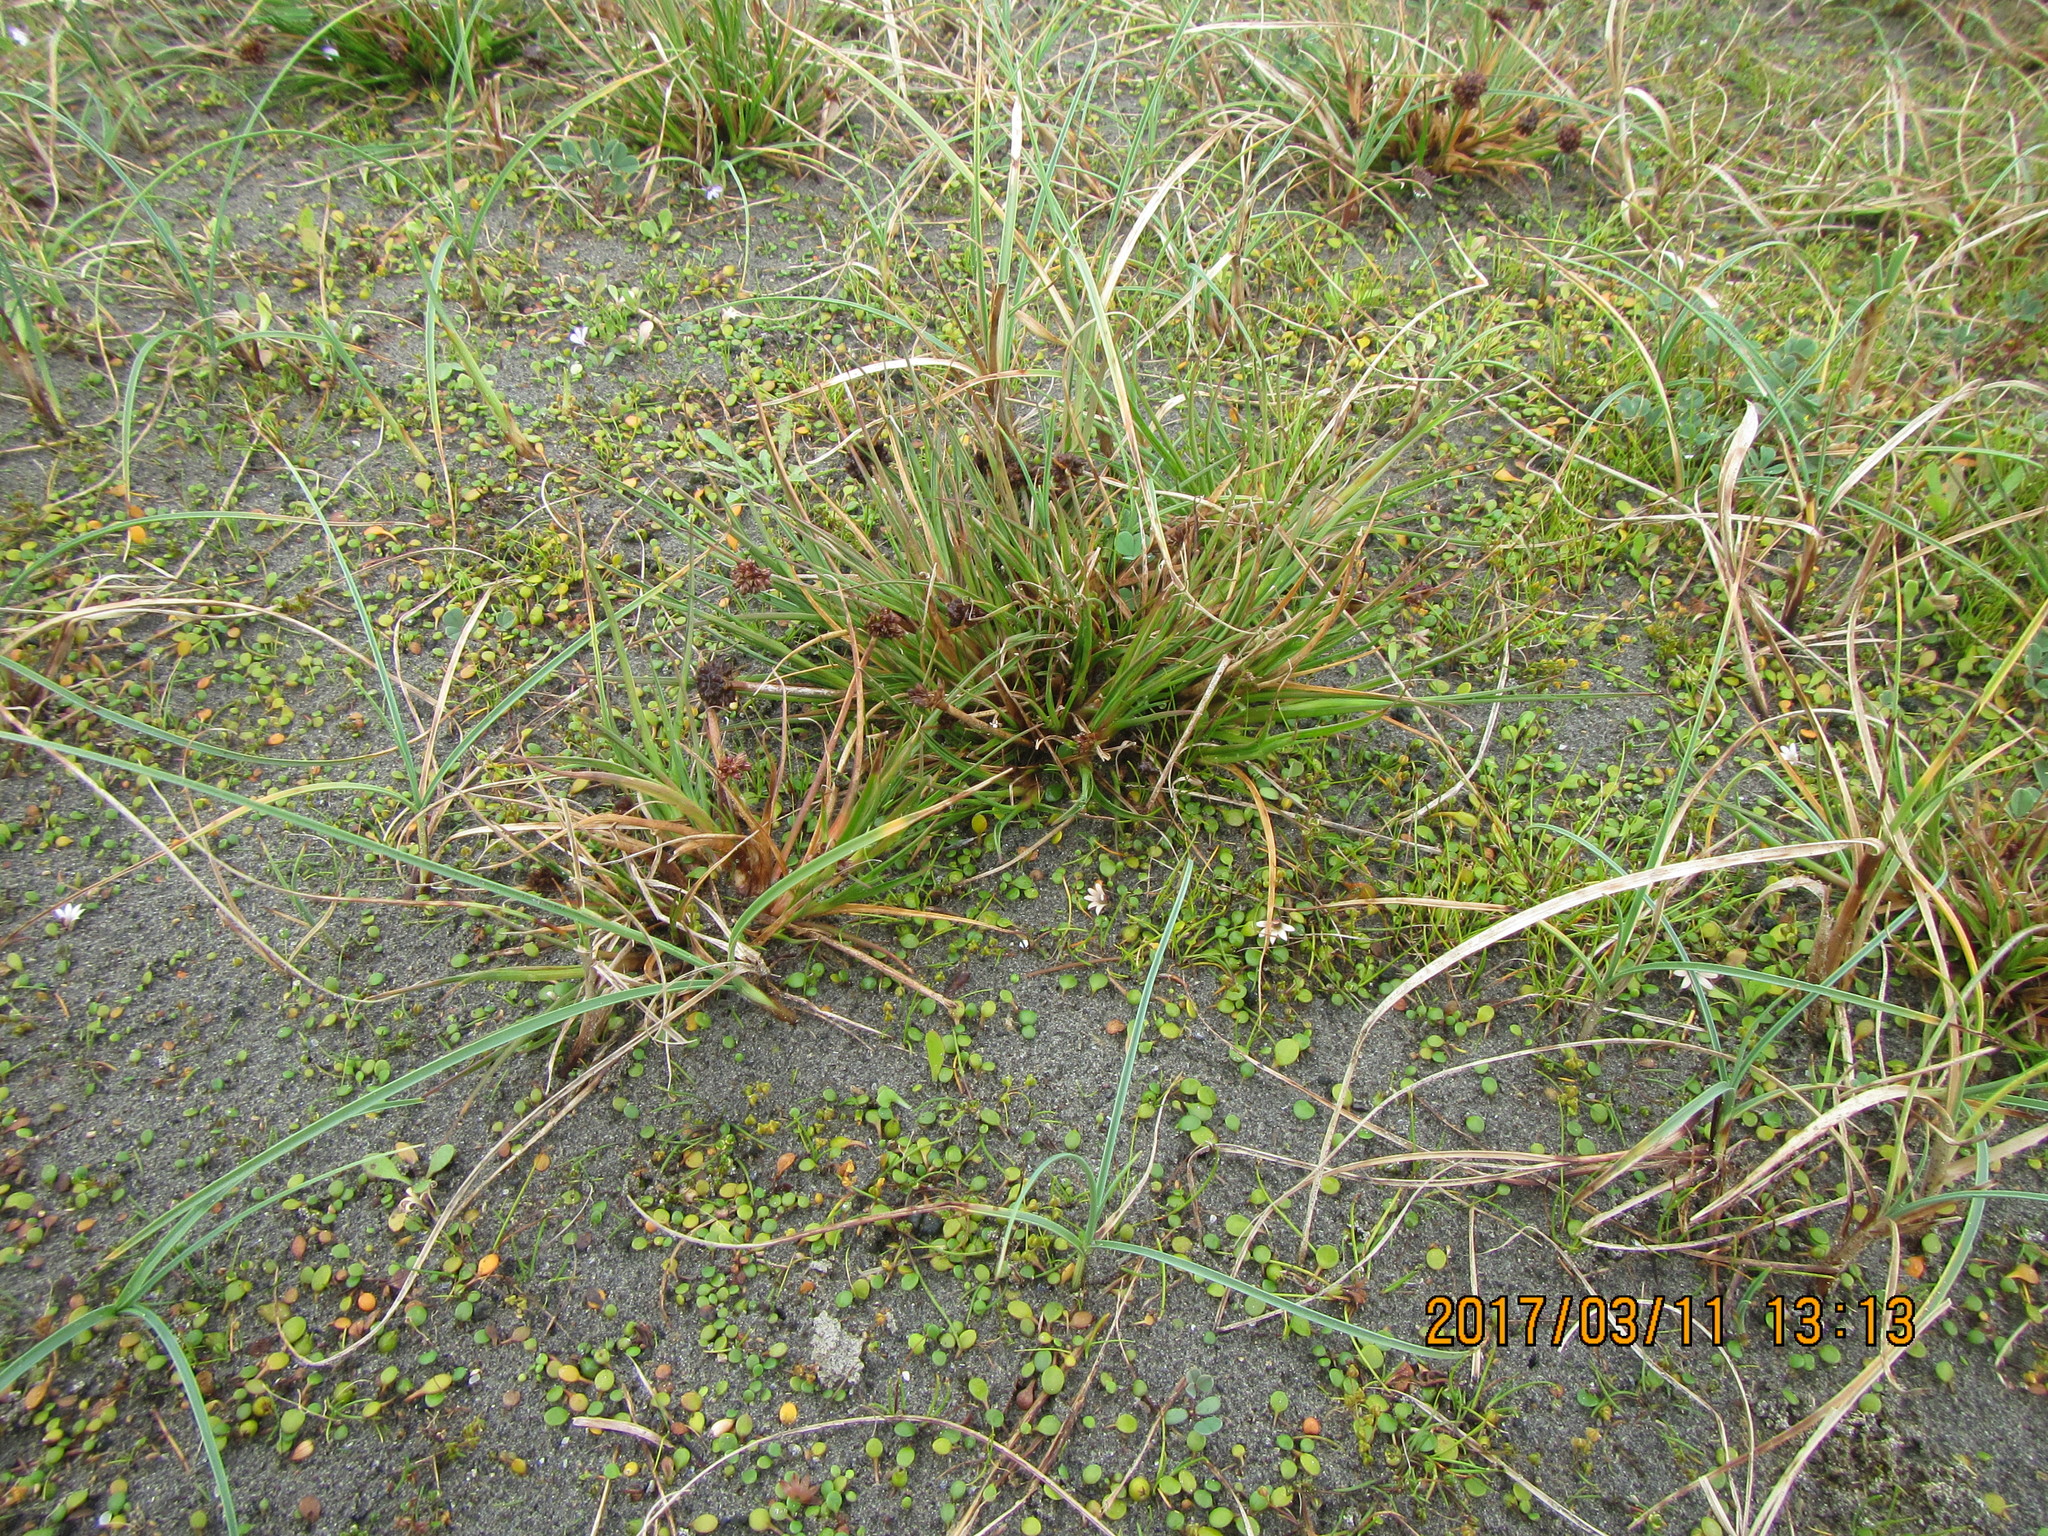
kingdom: Plantae
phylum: Tracheophyta
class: Liliopsida
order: Poales
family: Juncaceae
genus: Juncus
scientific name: Juncus caespiticius
